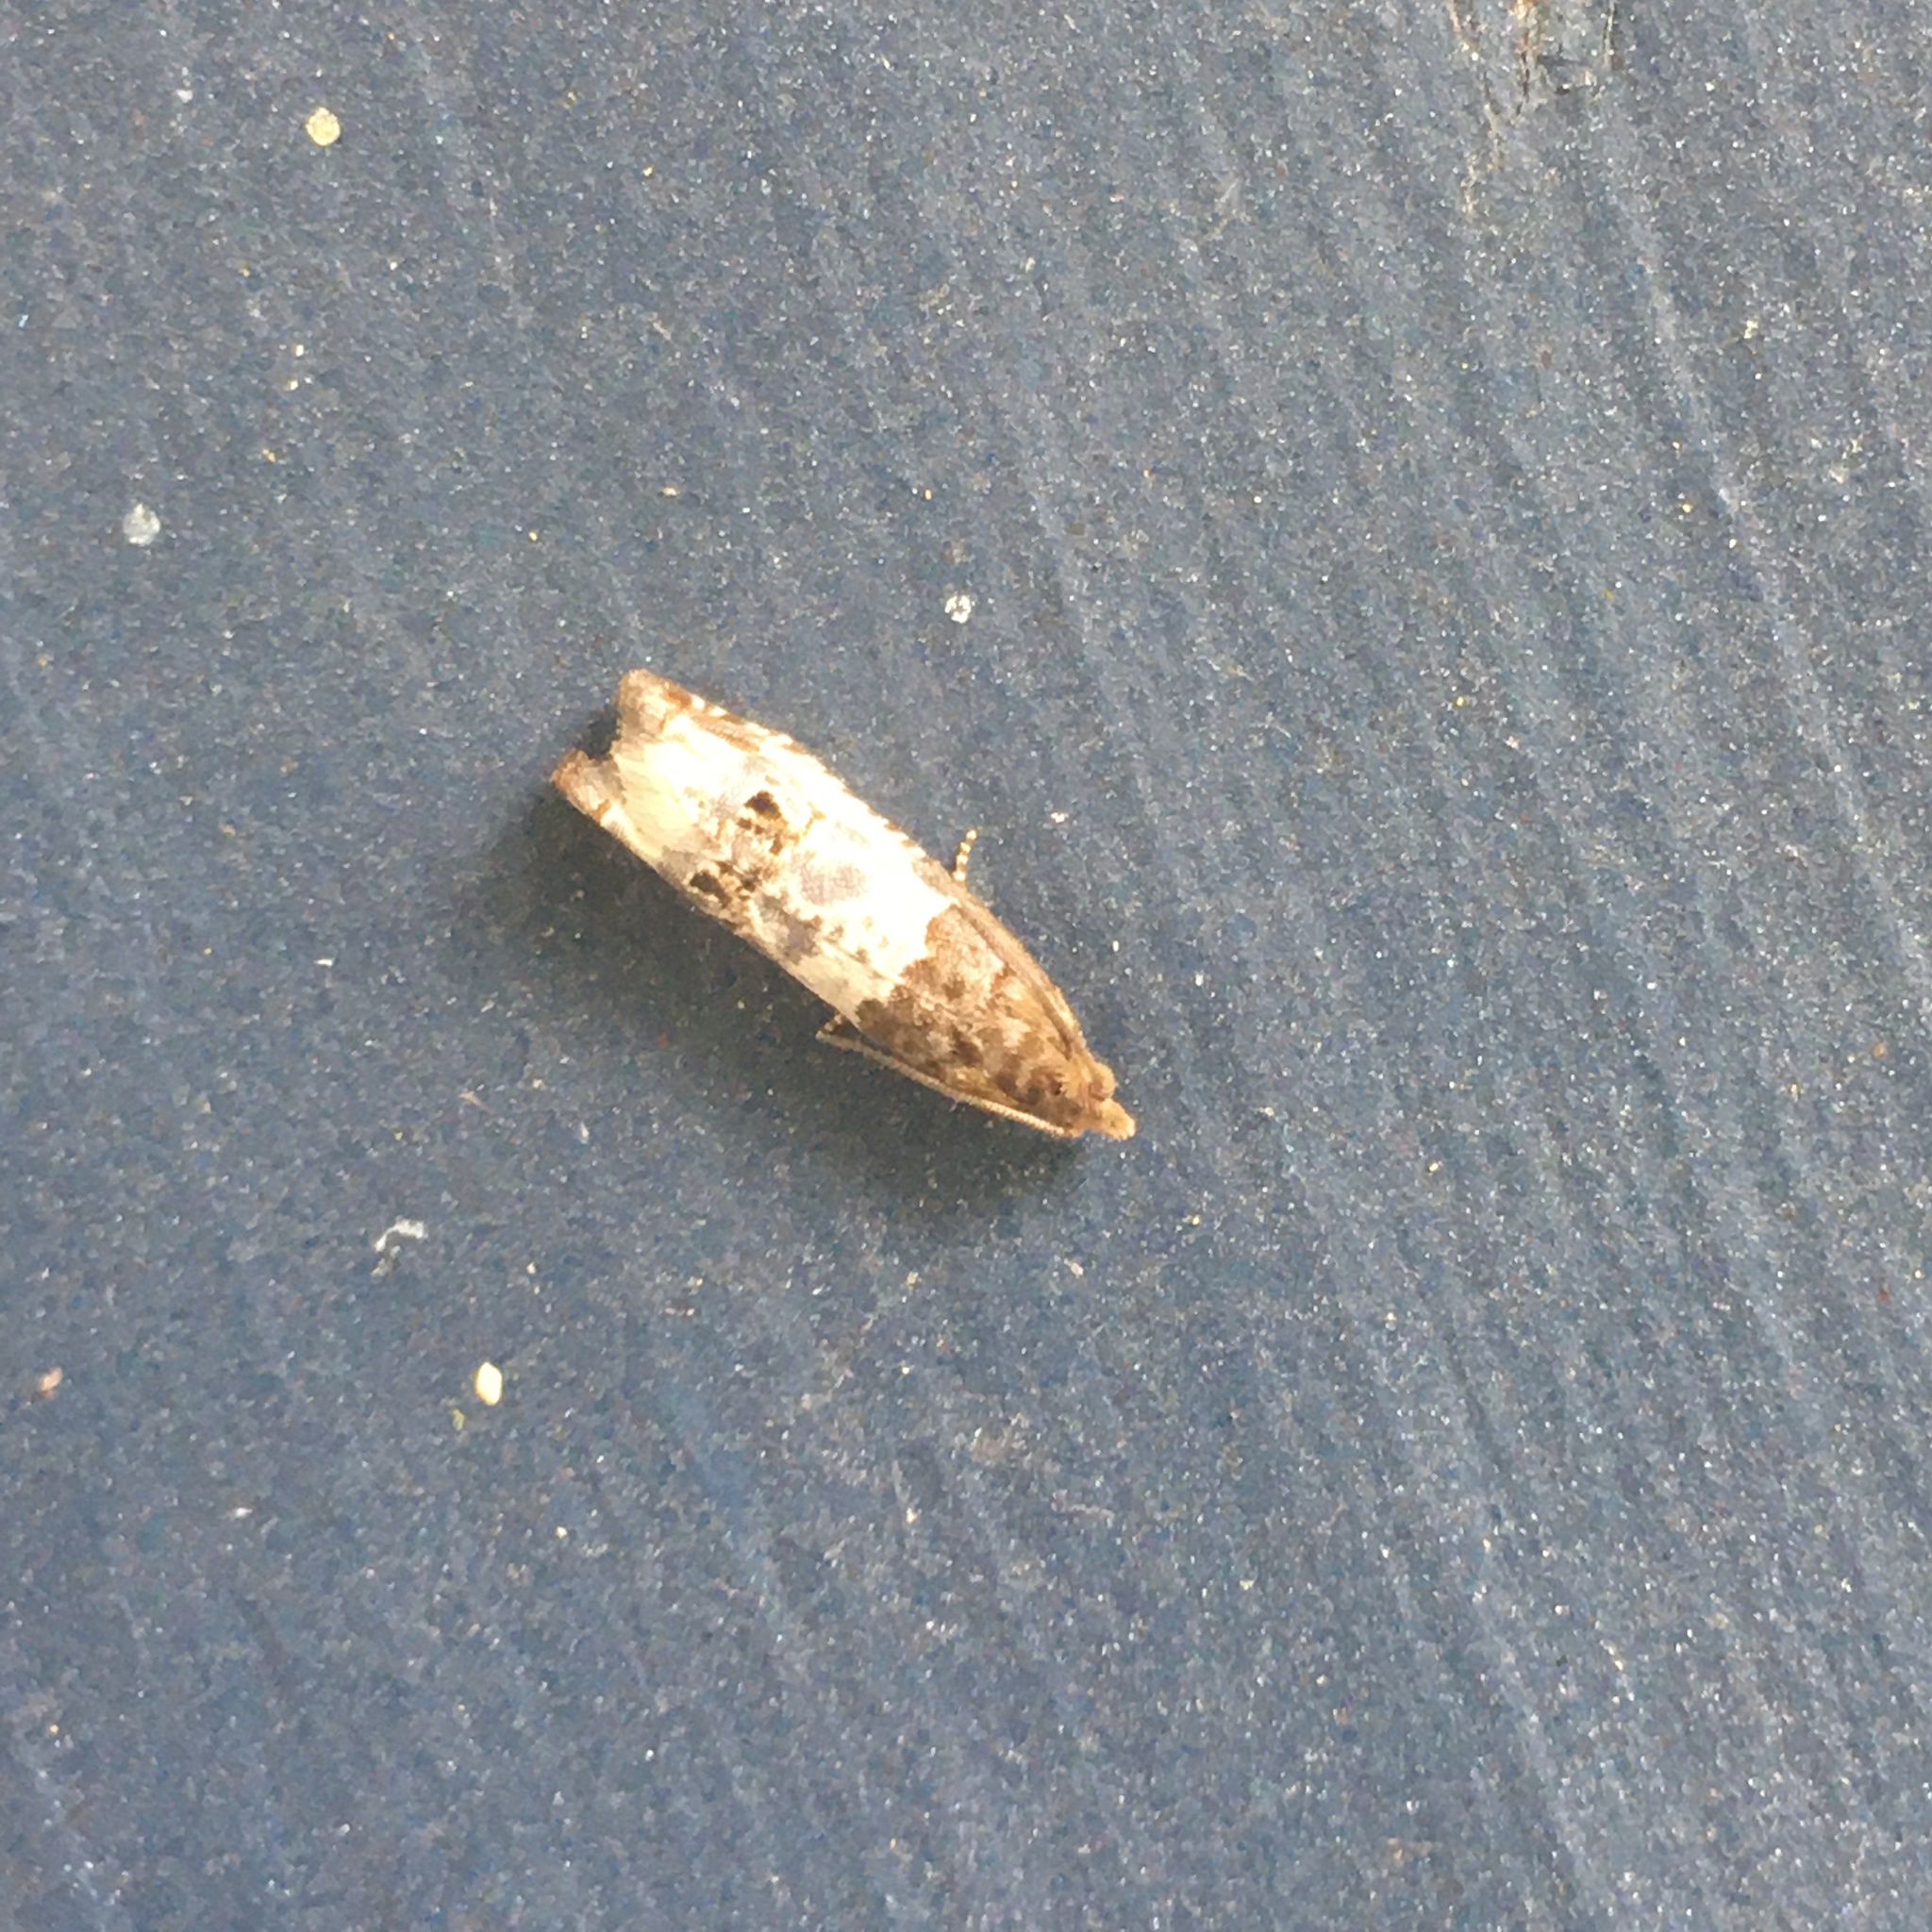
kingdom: Animalia
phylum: Arthropoda
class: Insecta
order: Lepidoptera
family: Tortricidae
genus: Notocelia
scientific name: Notocelia rosaecolana
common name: Common rose bell
